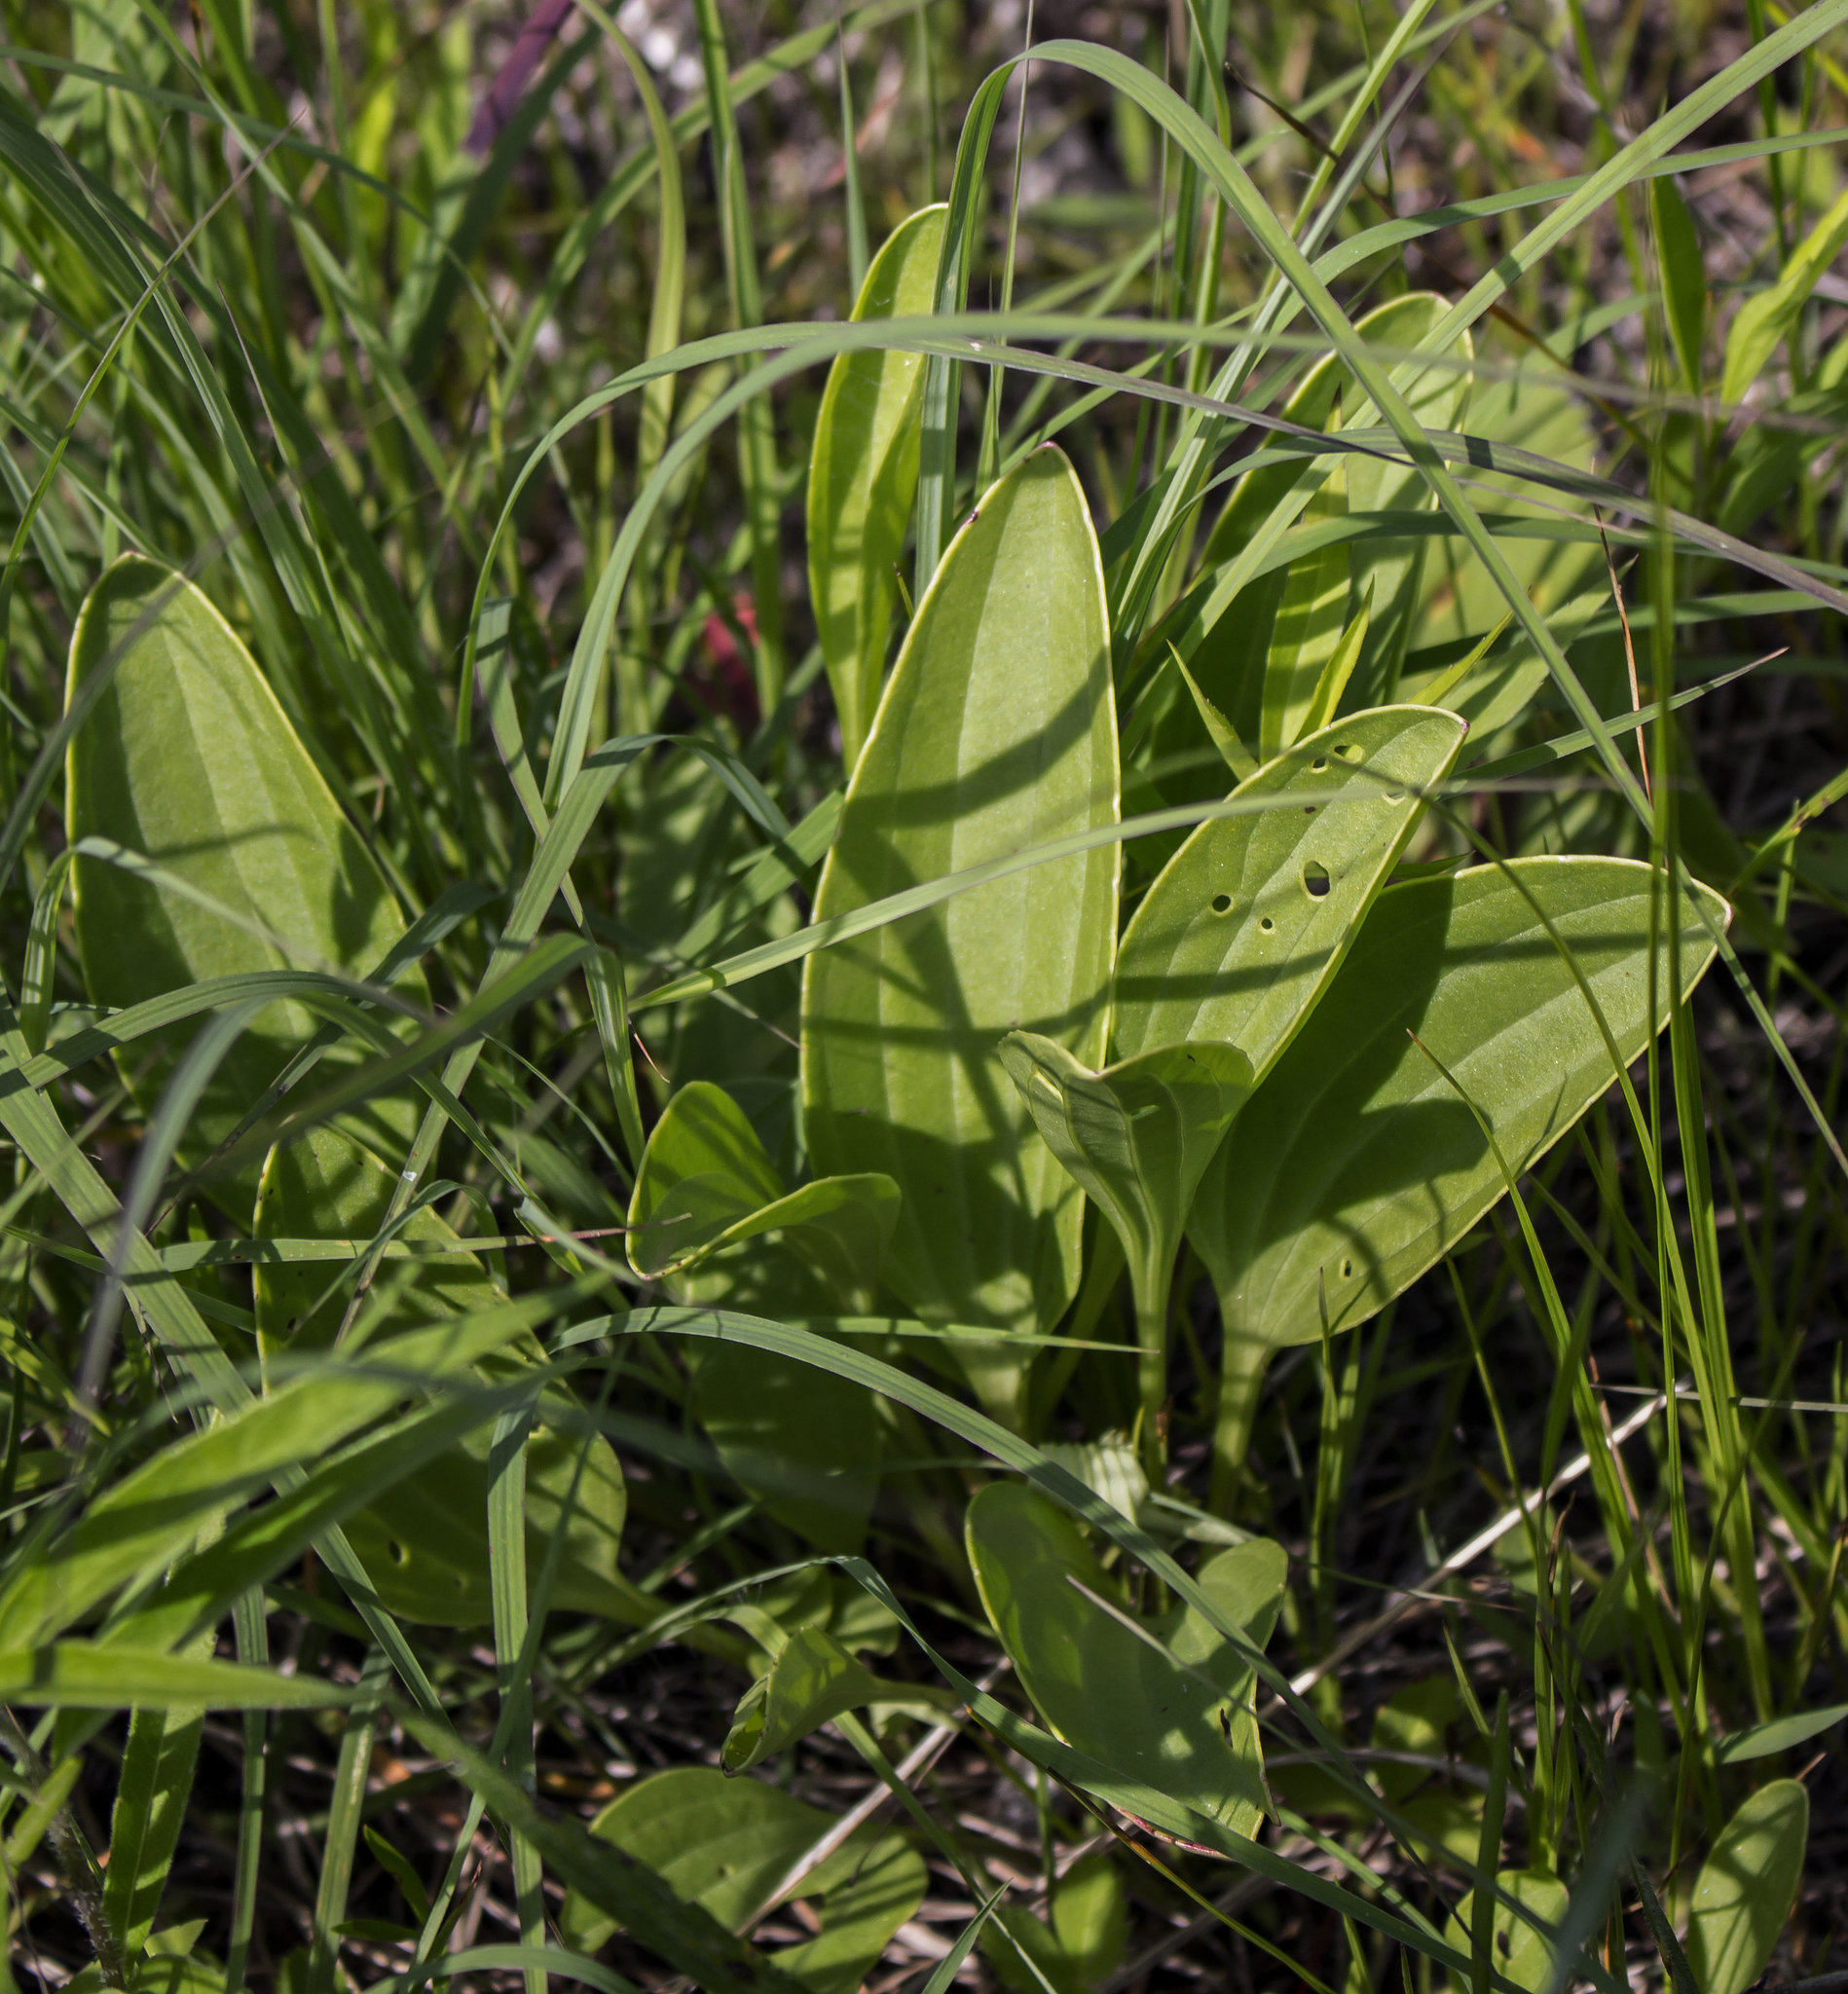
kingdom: Plantae
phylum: Tracheophyta
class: Magnoliopsida
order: Asterales
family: Asteraceae
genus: Arnoglossum
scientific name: Arnoglossum plantagineum
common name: Groove-stemmed indian-plantain
